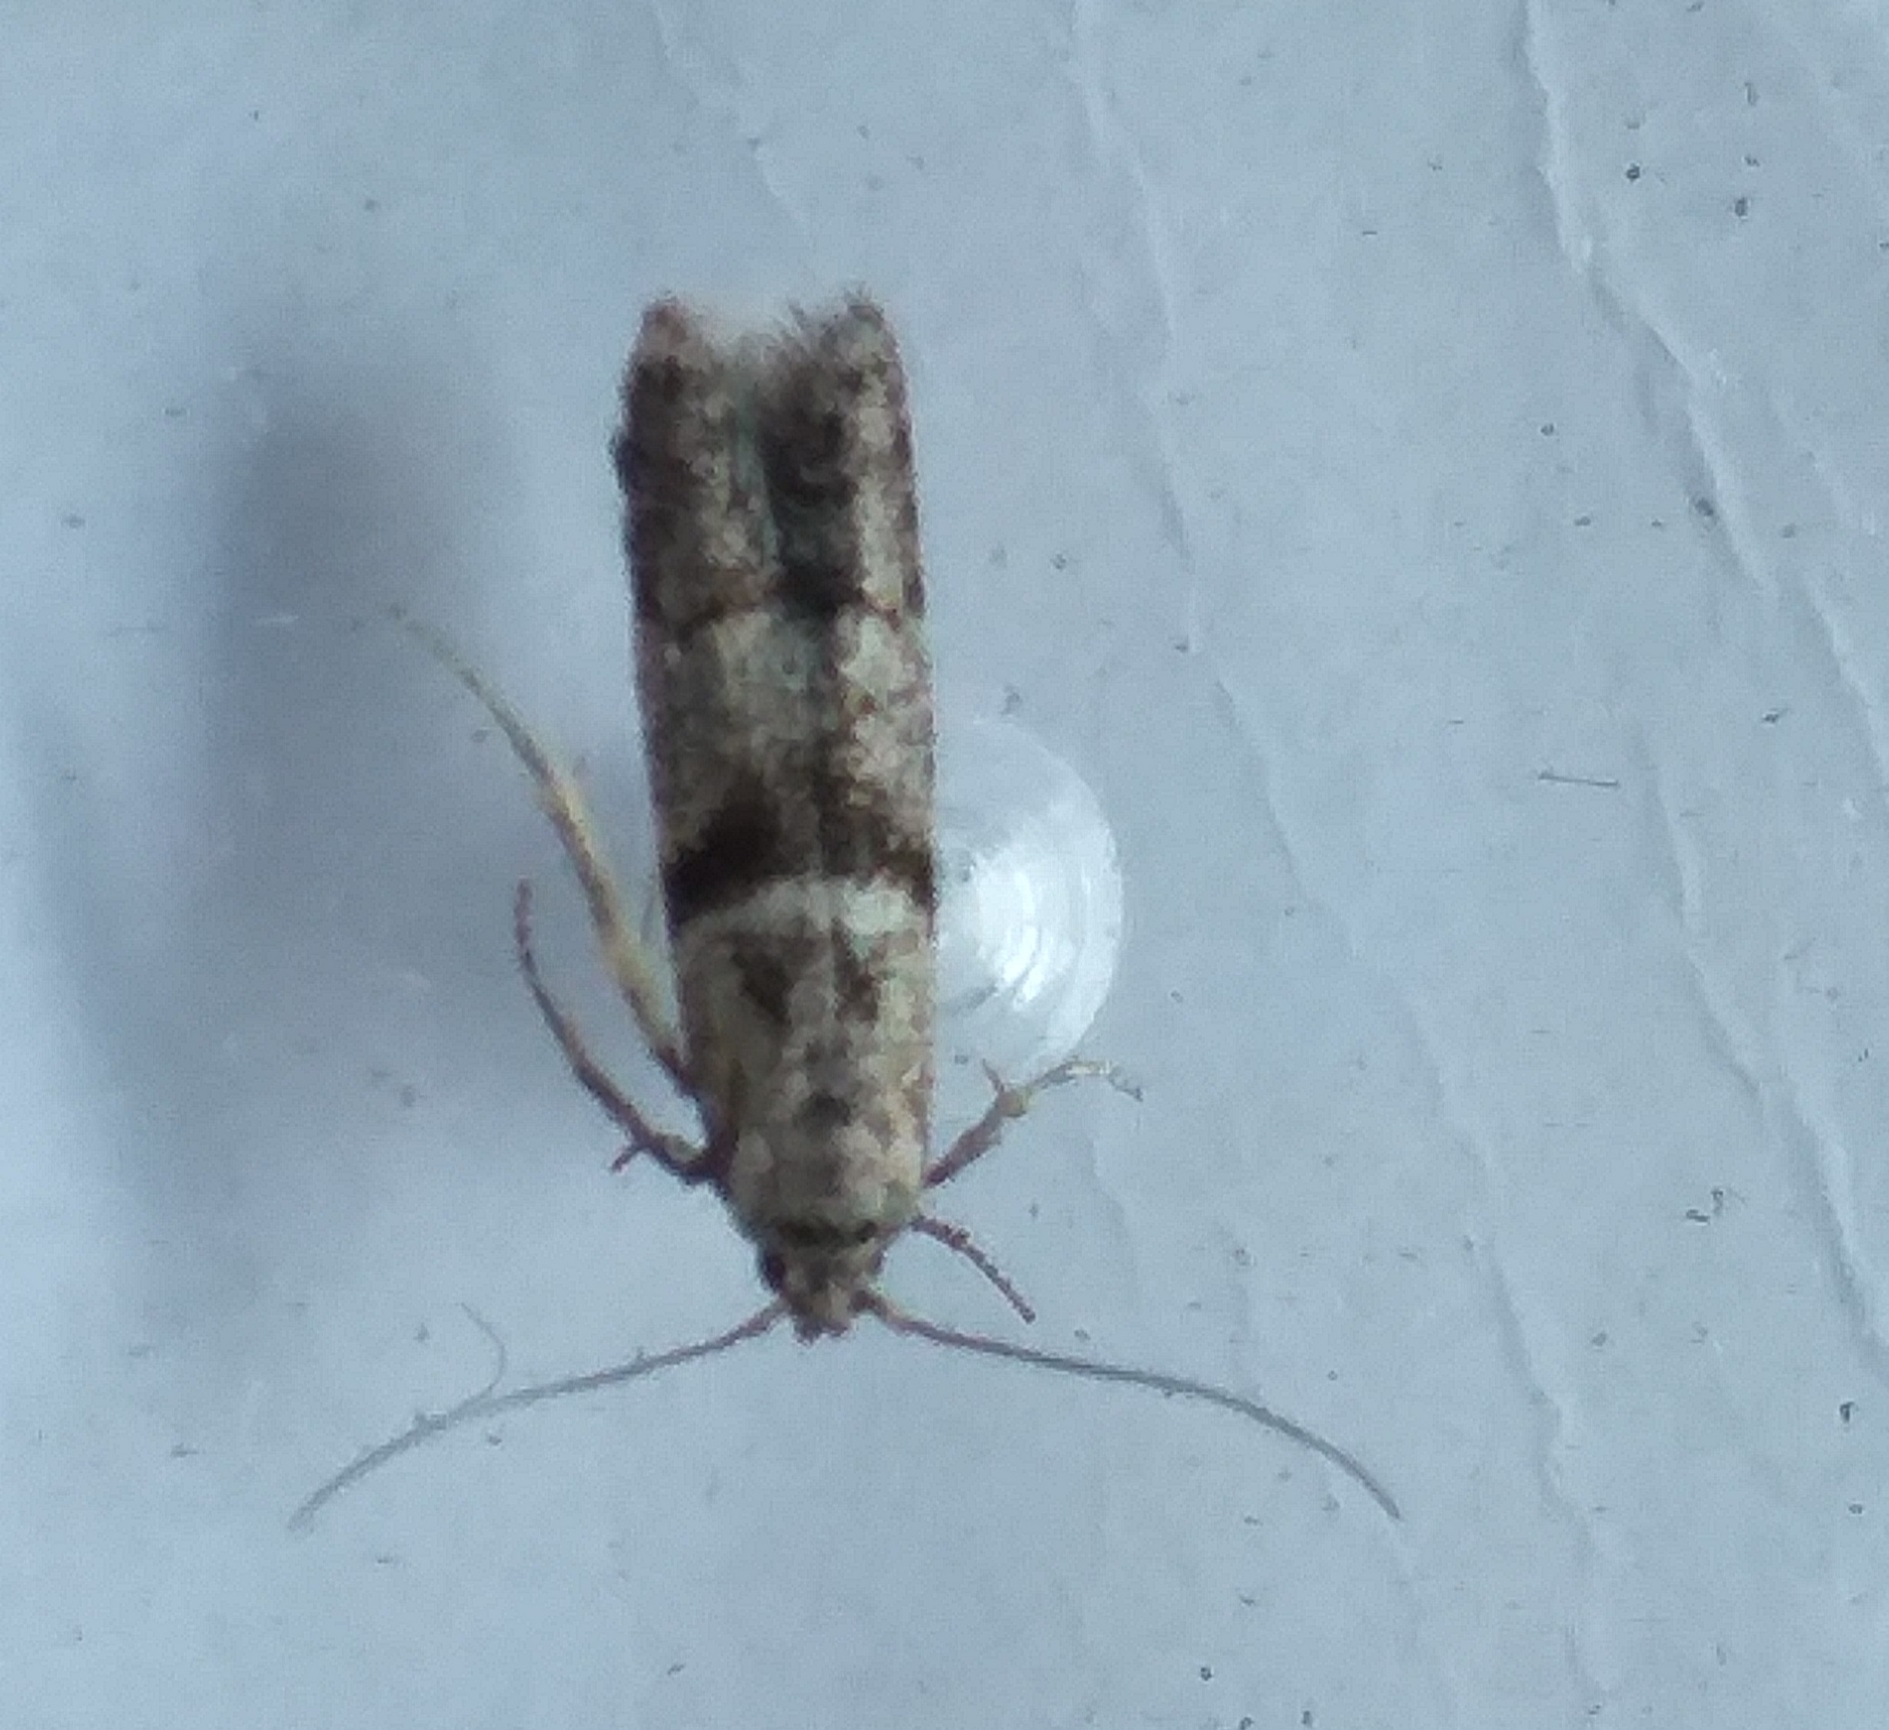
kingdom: Animalia
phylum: Arthropoda
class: Insecta
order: Lepidoptera
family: Blastobasidae
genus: Blastobasis
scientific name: Blastobasis rebeli
